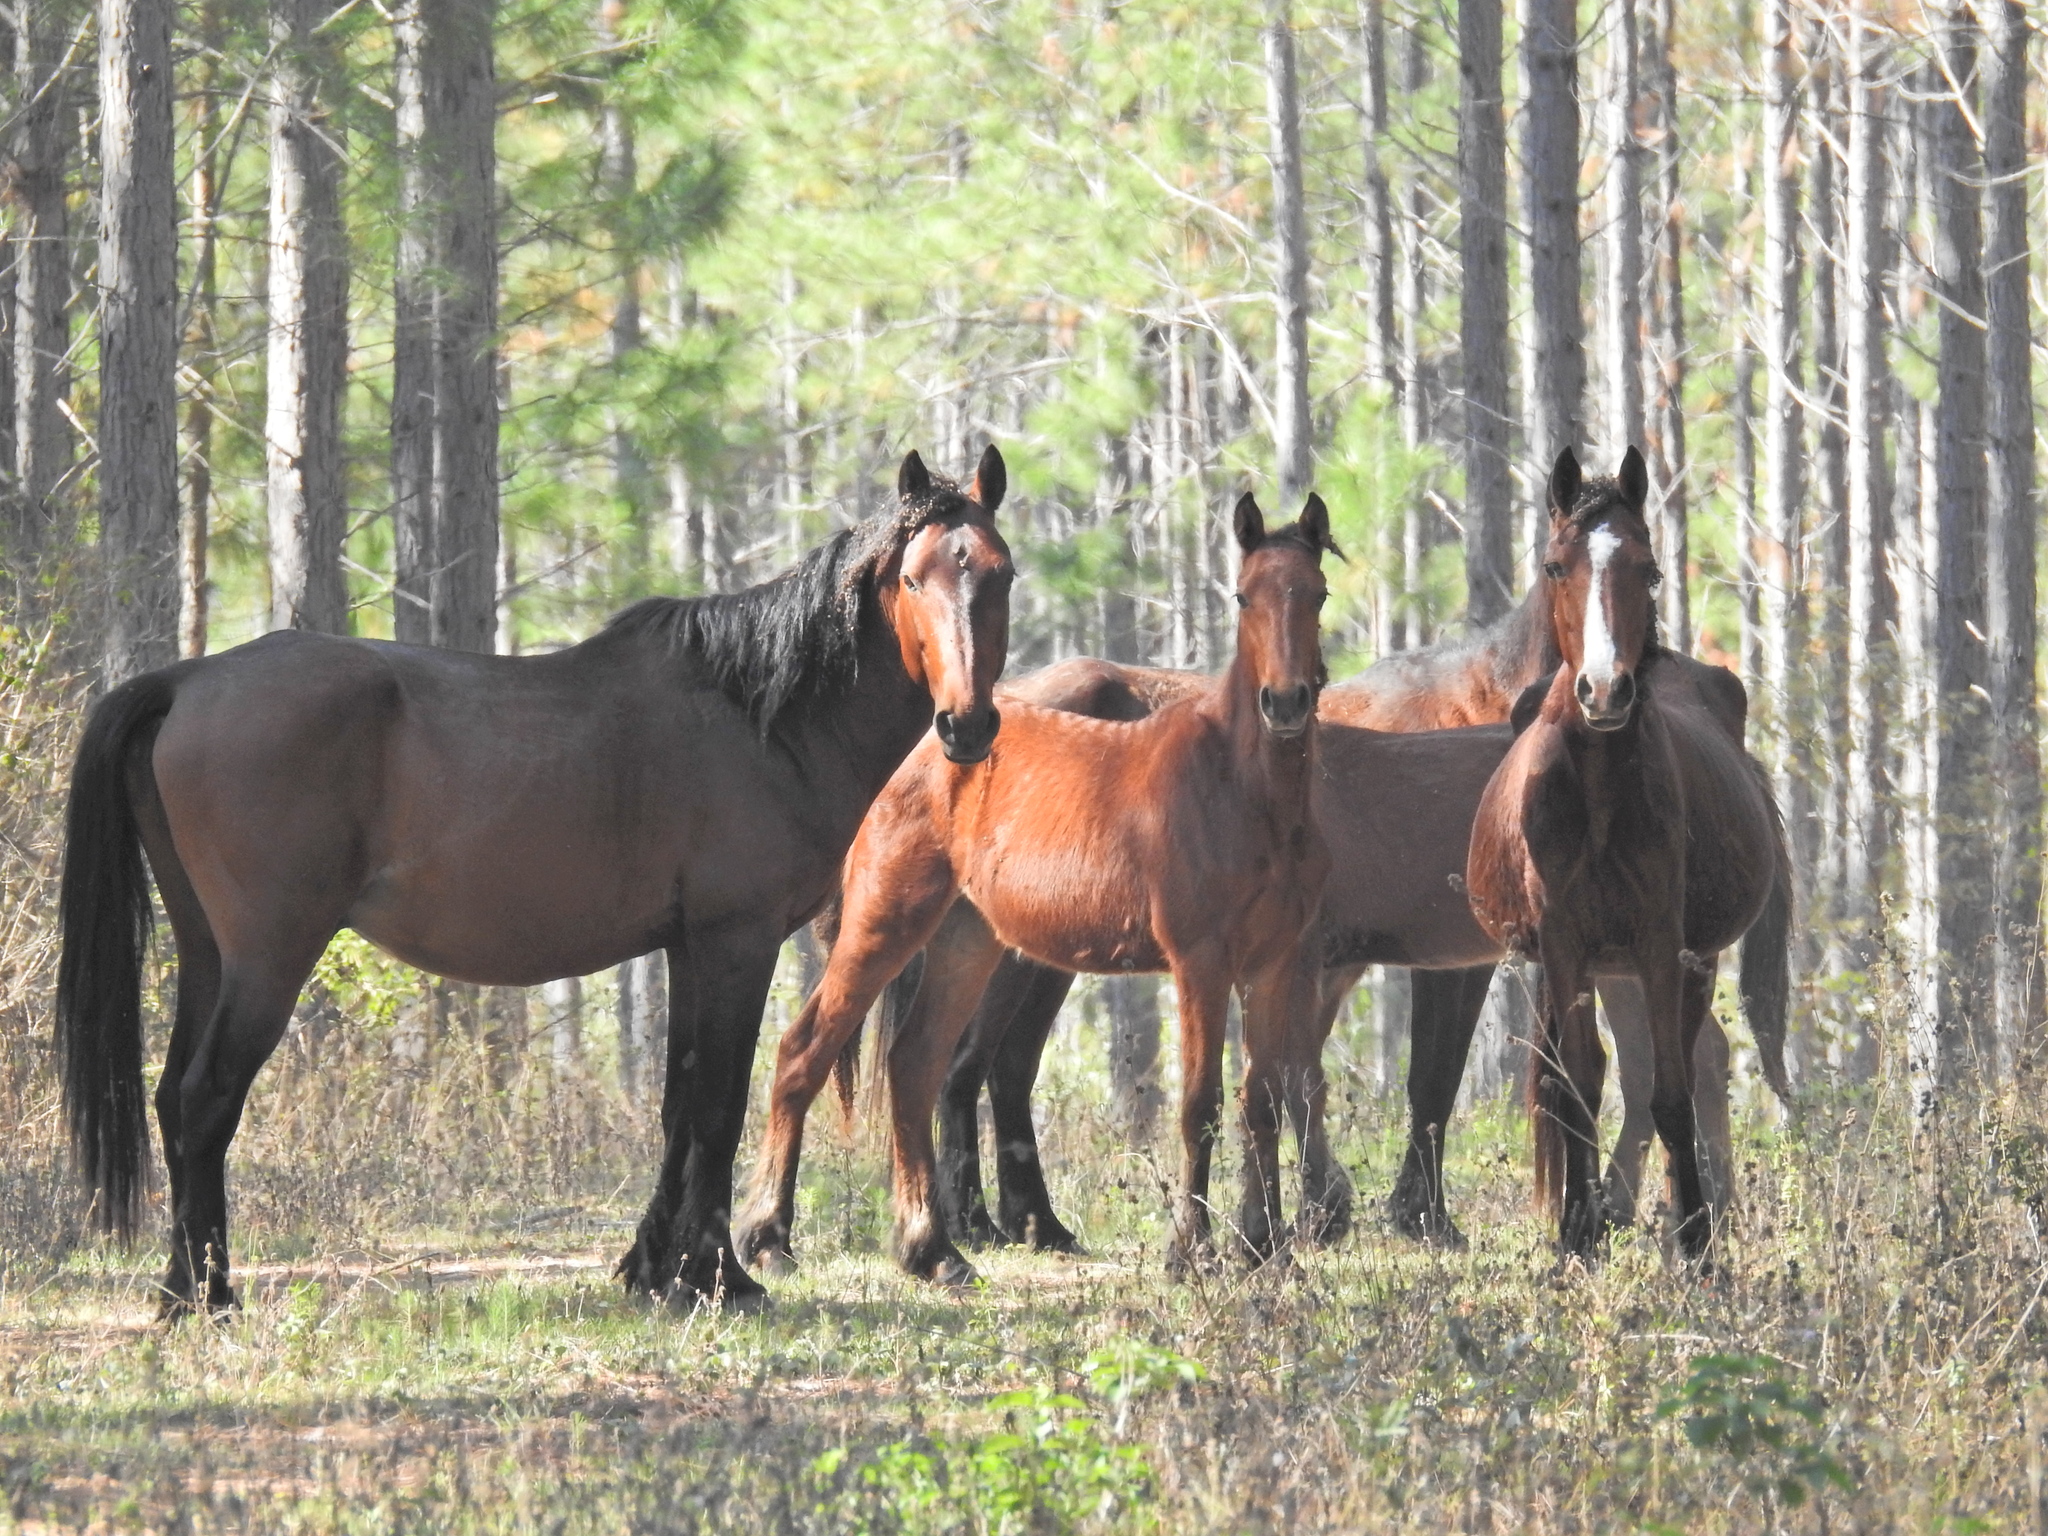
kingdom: Animalia
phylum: Chordata
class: Mammalia
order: Perissodactyla
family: Equidae
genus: Equus
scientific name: Equus caballus
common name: Horse
